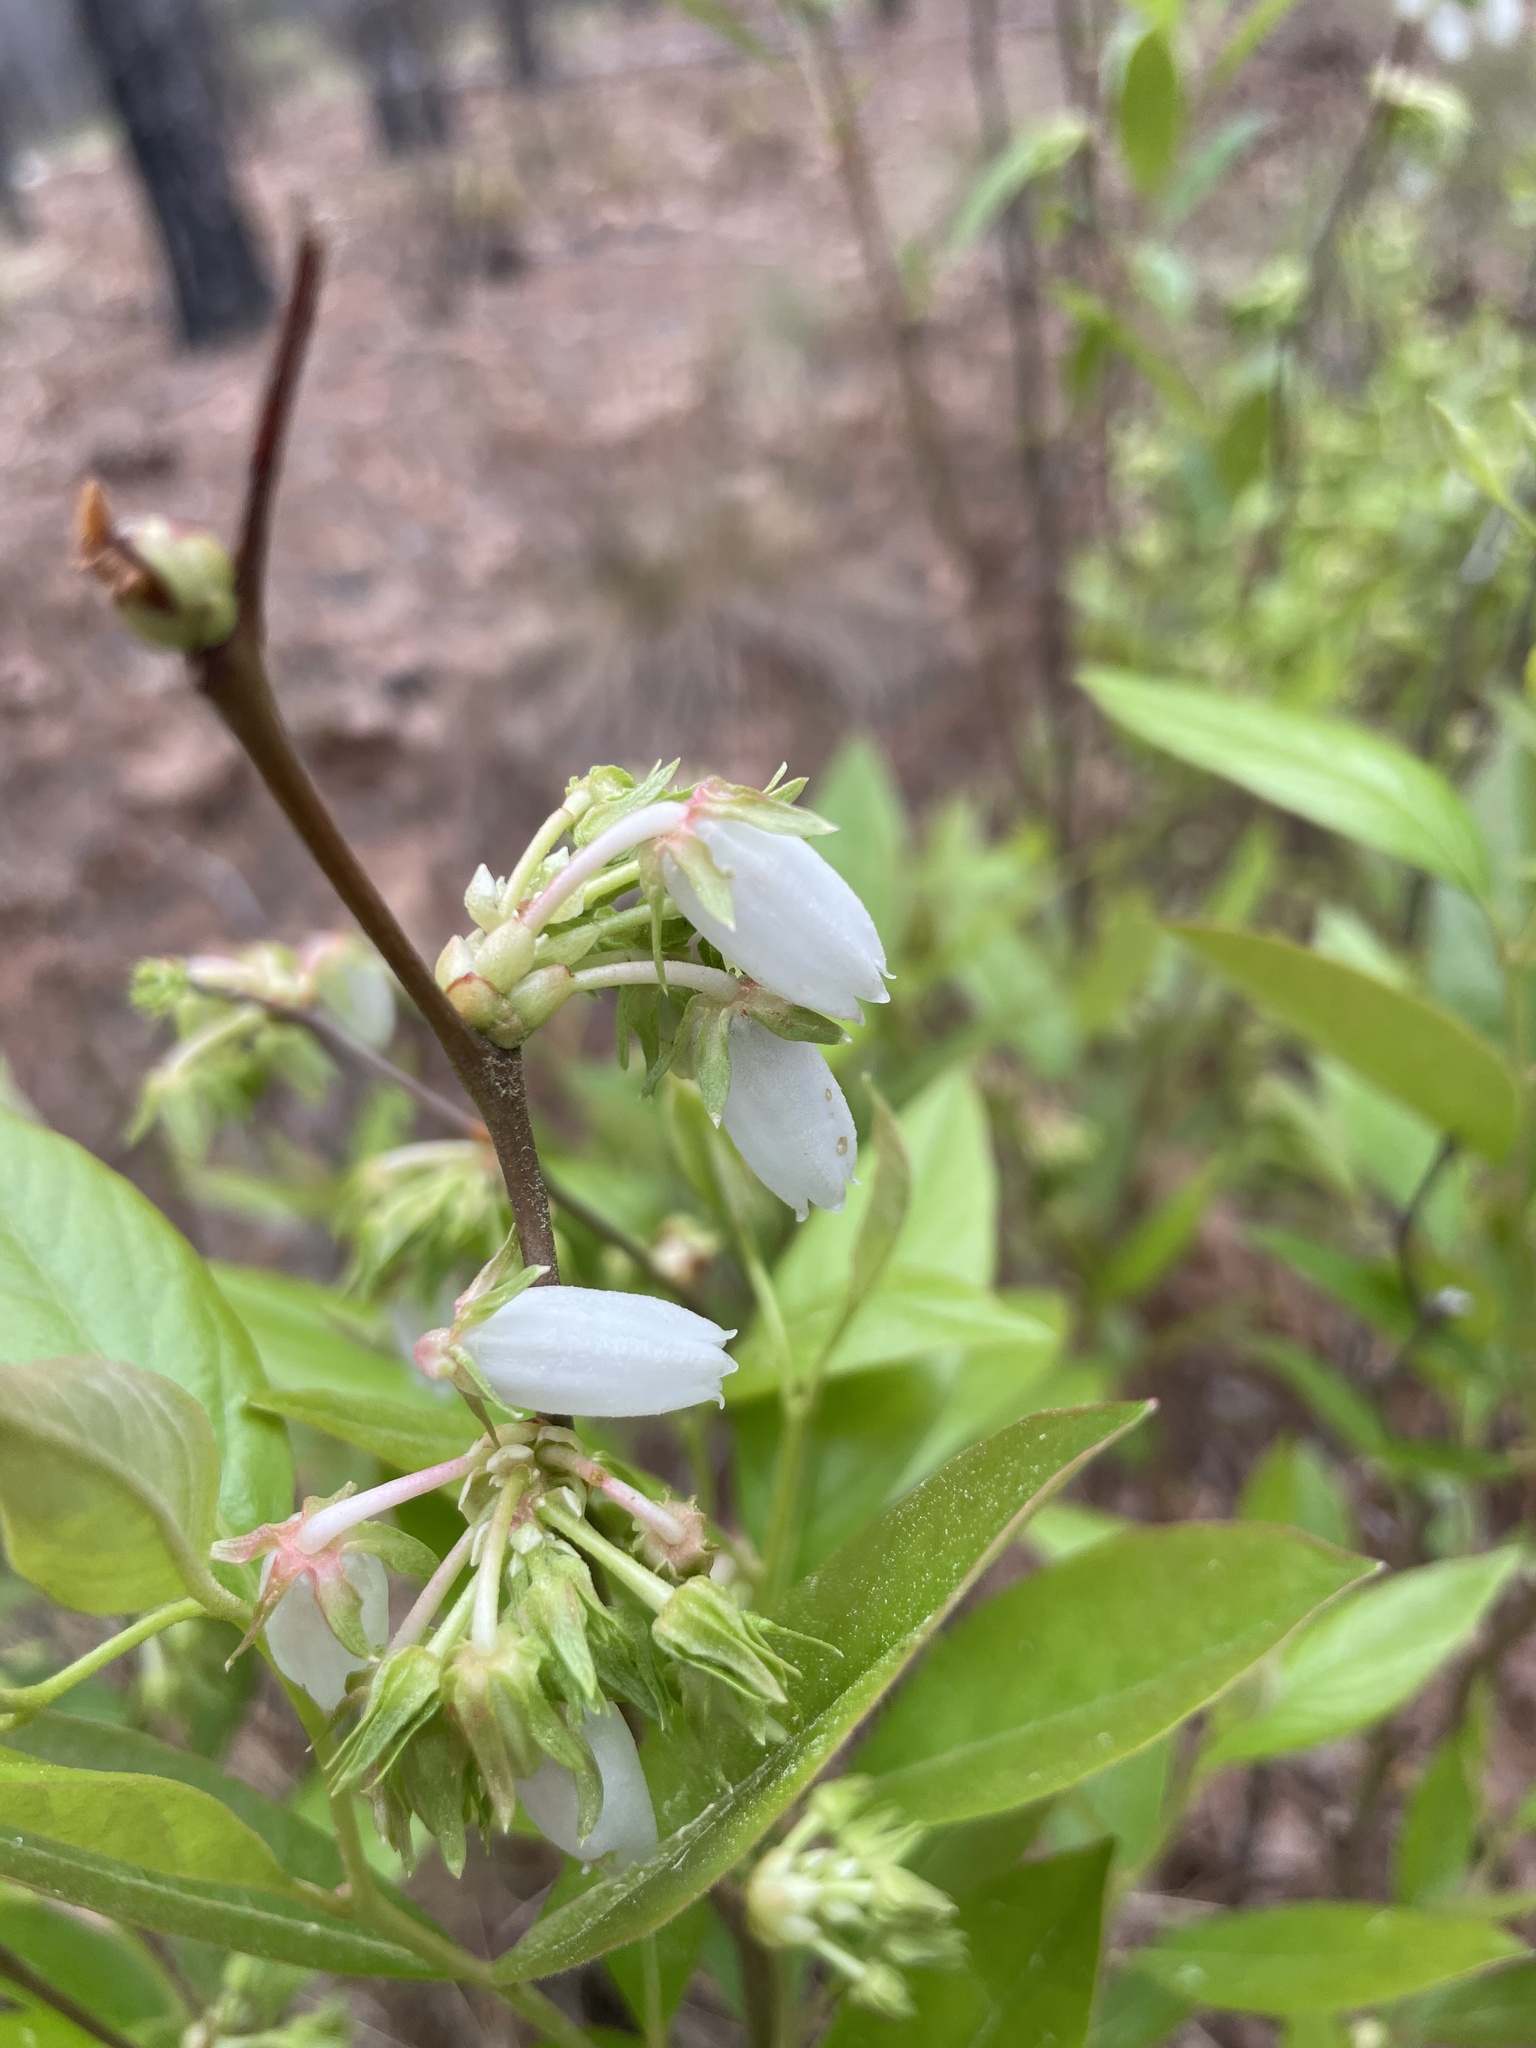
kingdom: Plantae
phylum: Tracheophyta
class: Magnoliopsida
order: Ericales
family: Ericaceae
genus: Lyonia
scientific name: Lyonia mariana
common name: Staggerbush
